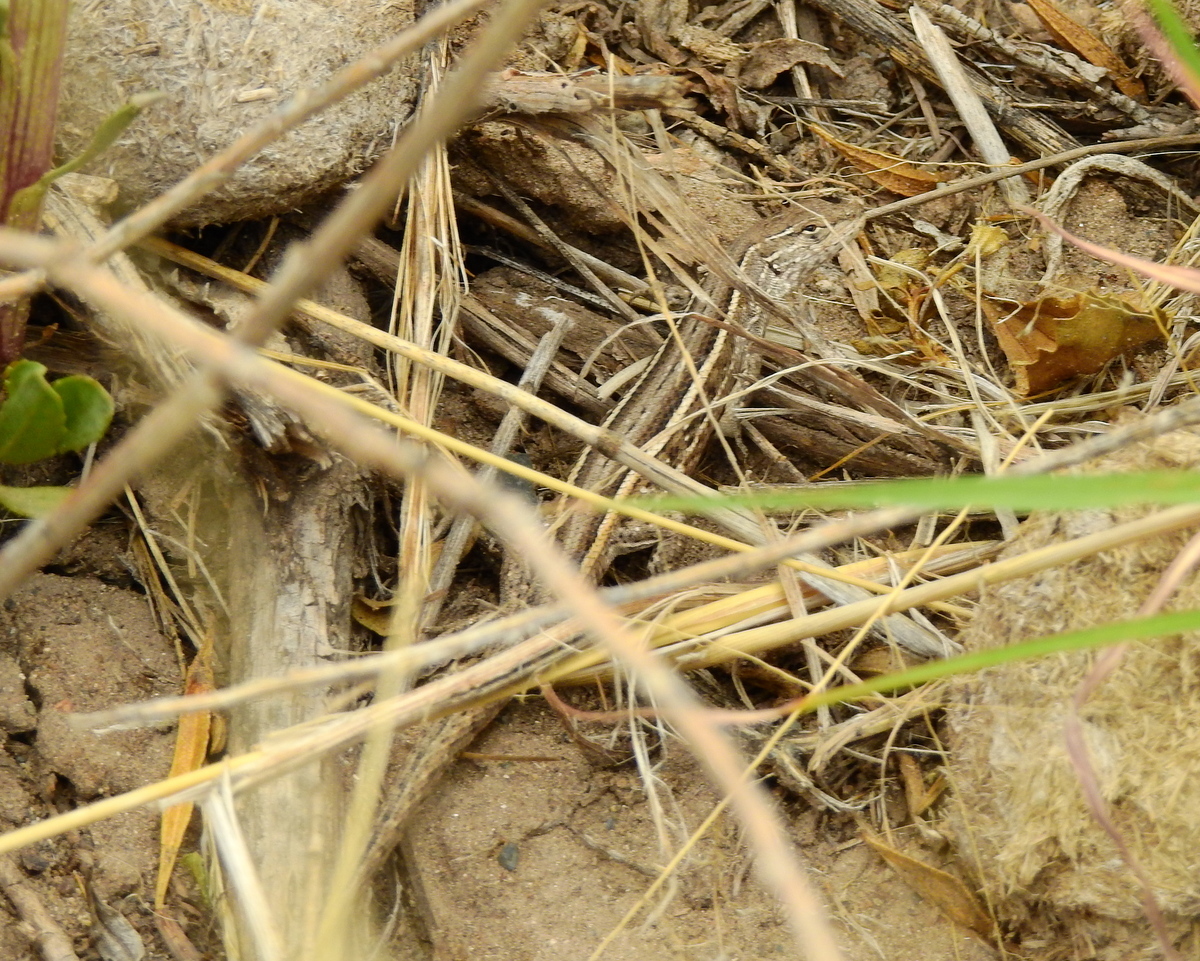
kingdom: Animalia
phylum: Chordata
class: Squamata
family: Liolaemidae
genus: Liolaemus
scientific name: Liolaemus gracilis
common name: Graceful tree iguana
